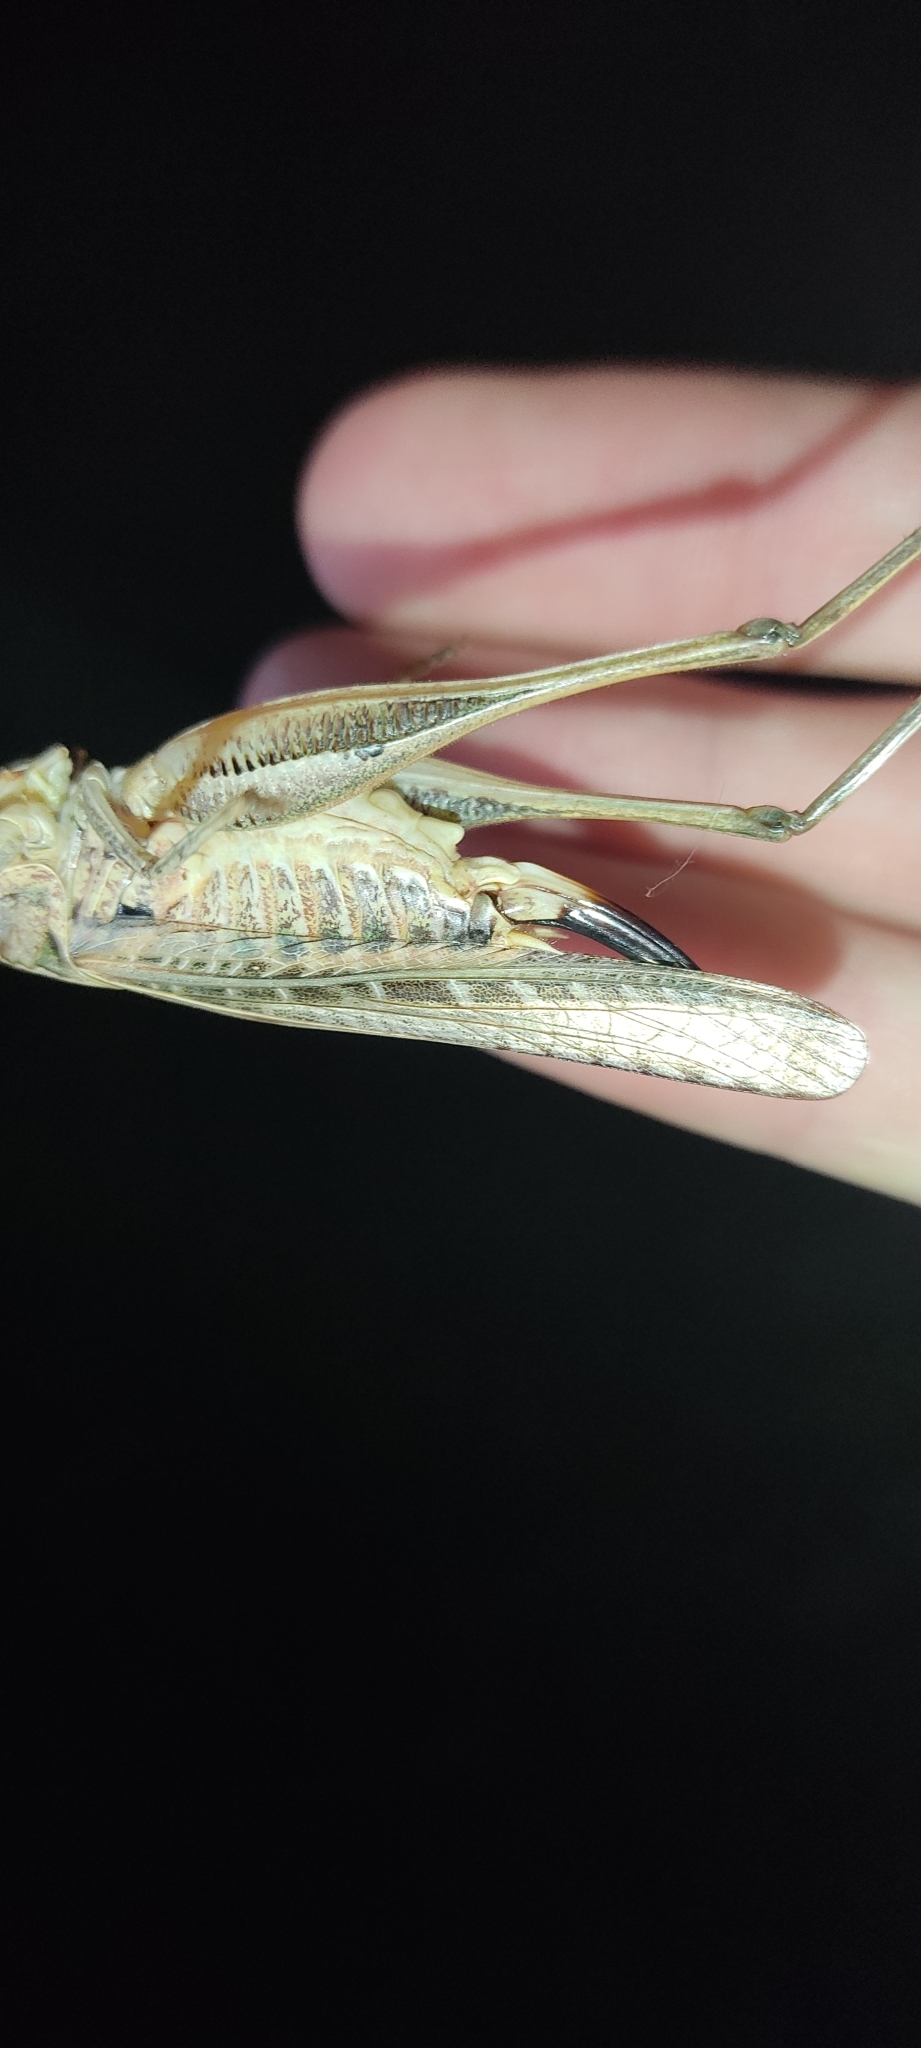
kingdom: Animalia
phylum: Arthropoda
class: Insecta
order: Orthoptera
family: Tettigoniidae
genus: Platycleis
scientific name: Platycleis affinis
